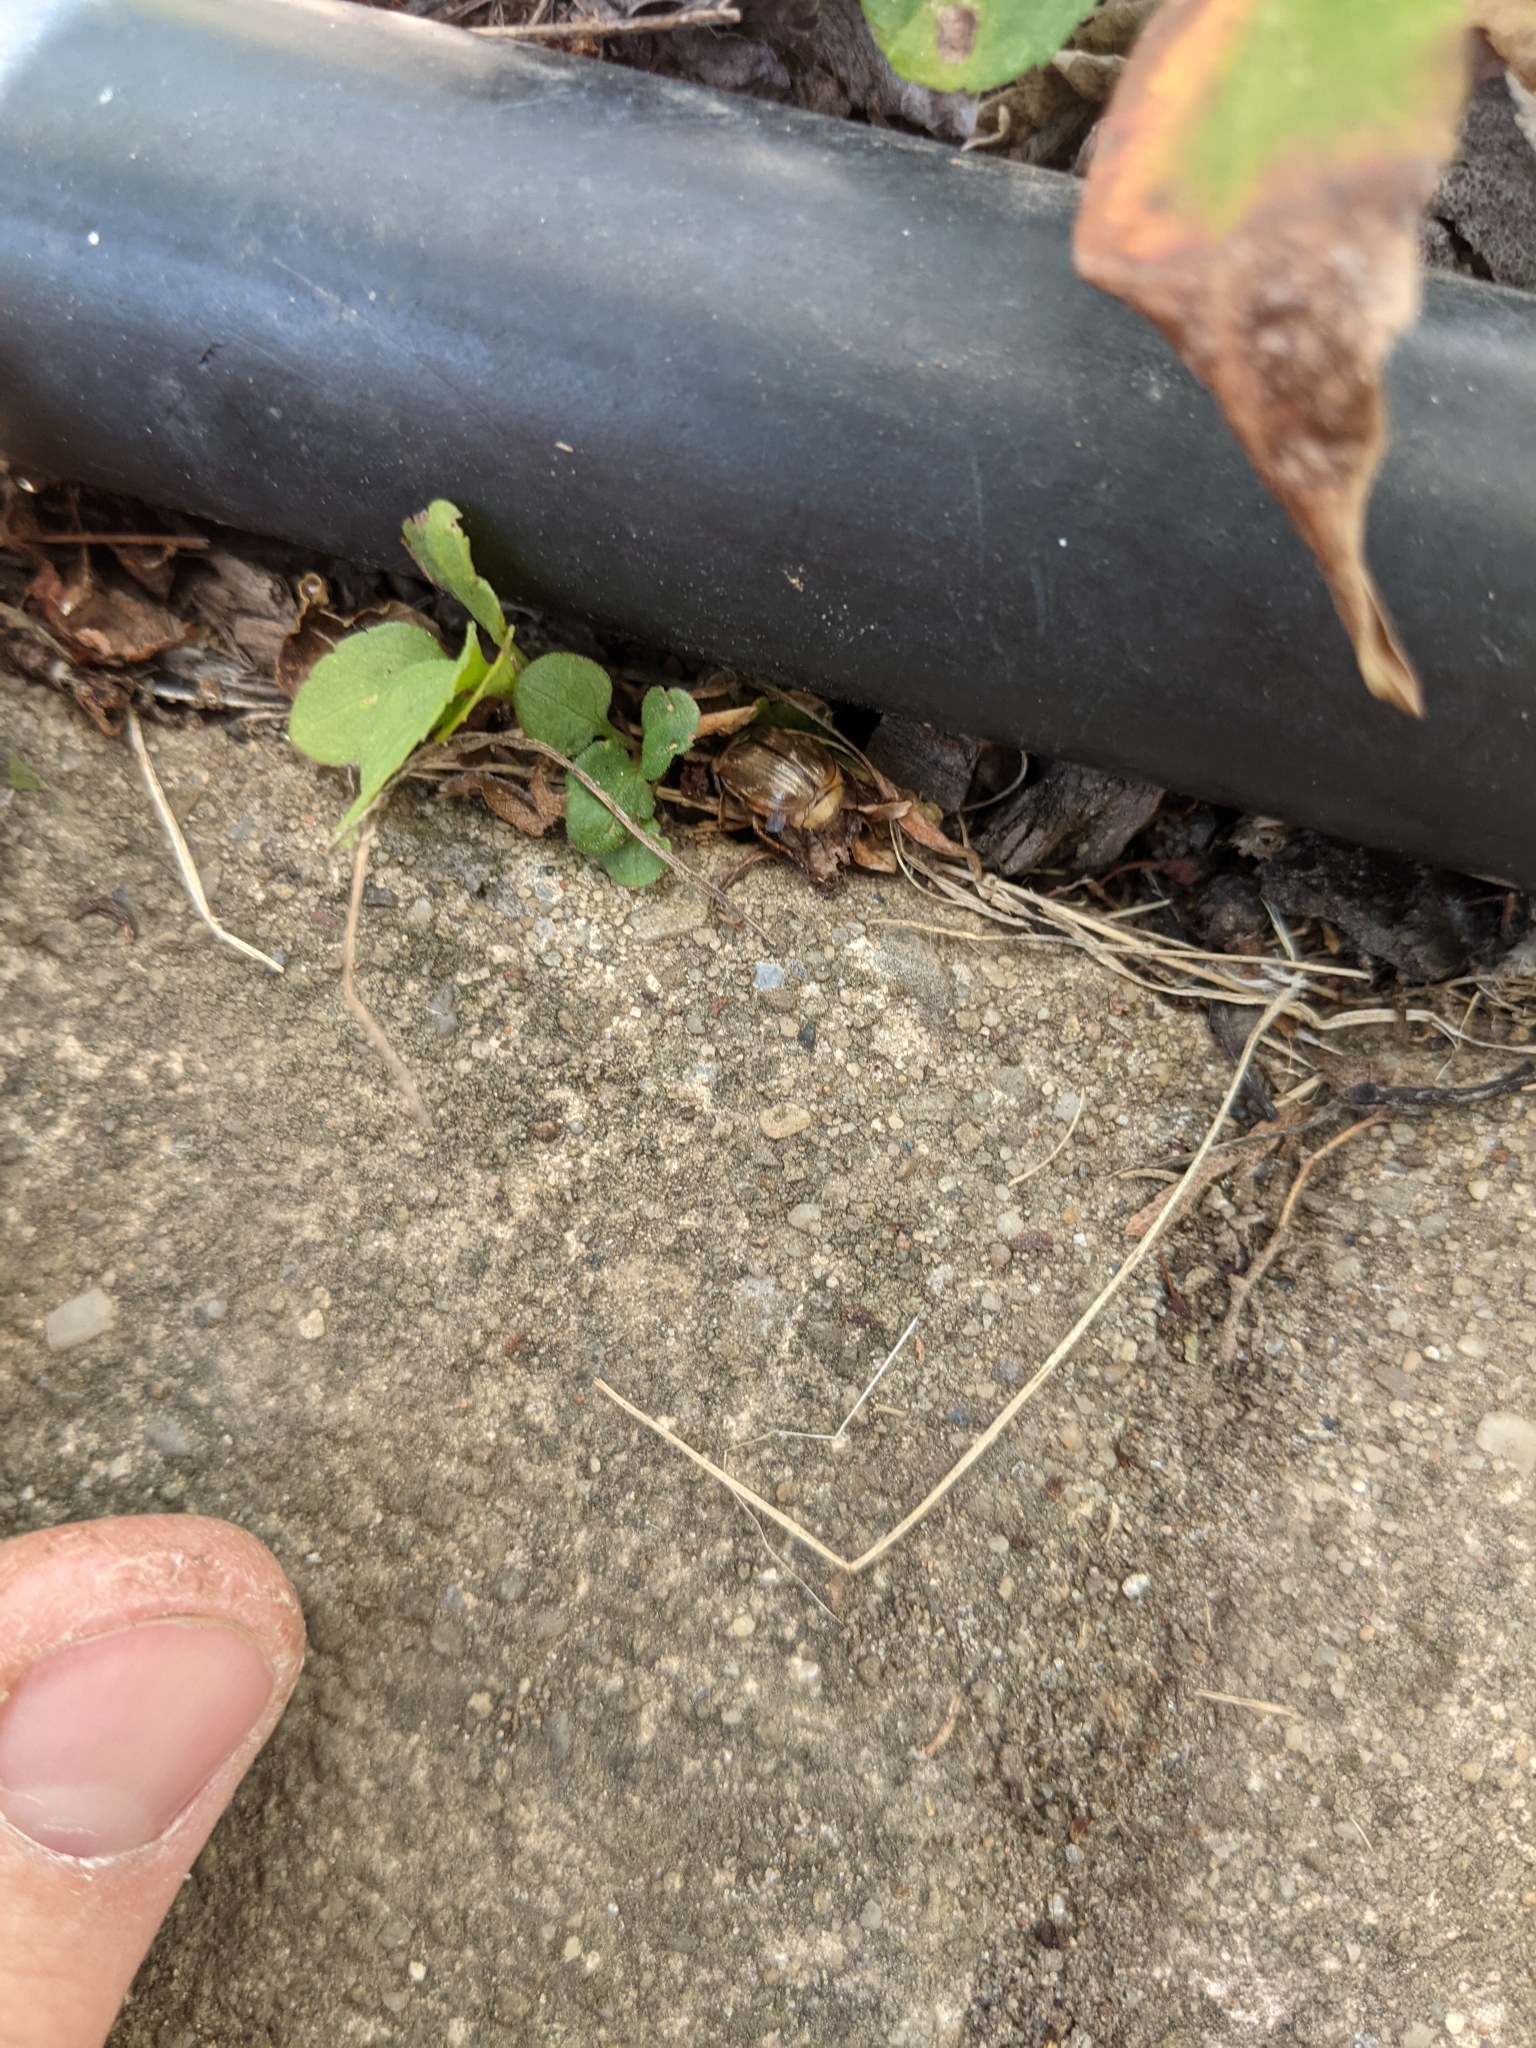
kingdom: Animalia
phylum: Arthropoda
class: Insecta
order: Coleoptera
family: Scarabaeidae
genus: Exomala
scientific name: Exomala orientalis
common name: Oriental beetle
